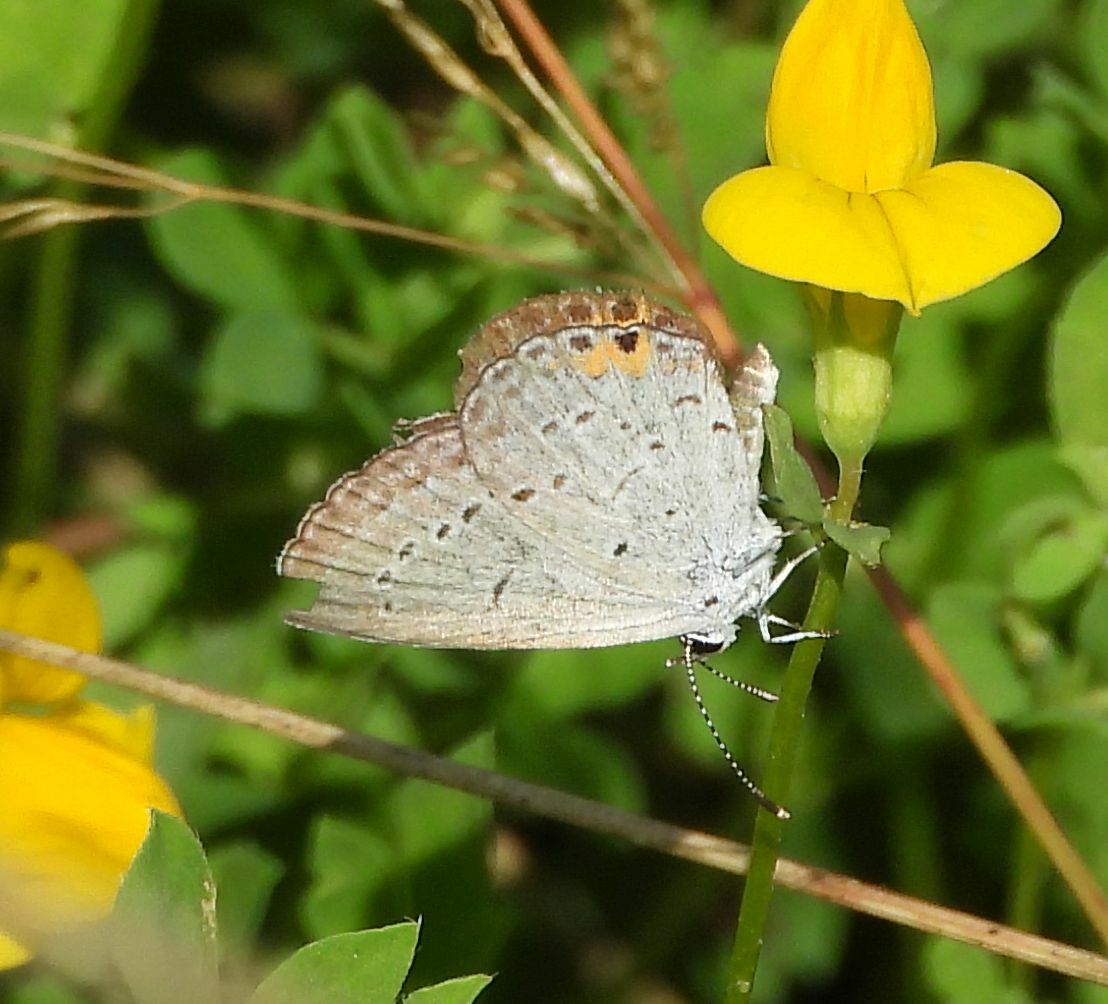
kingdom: Animalia
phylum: Arthropoda
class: Insecta
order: Lepidoptera
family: Lycaenidae
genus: Elkalyce
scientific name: Elkalyce comyntas
